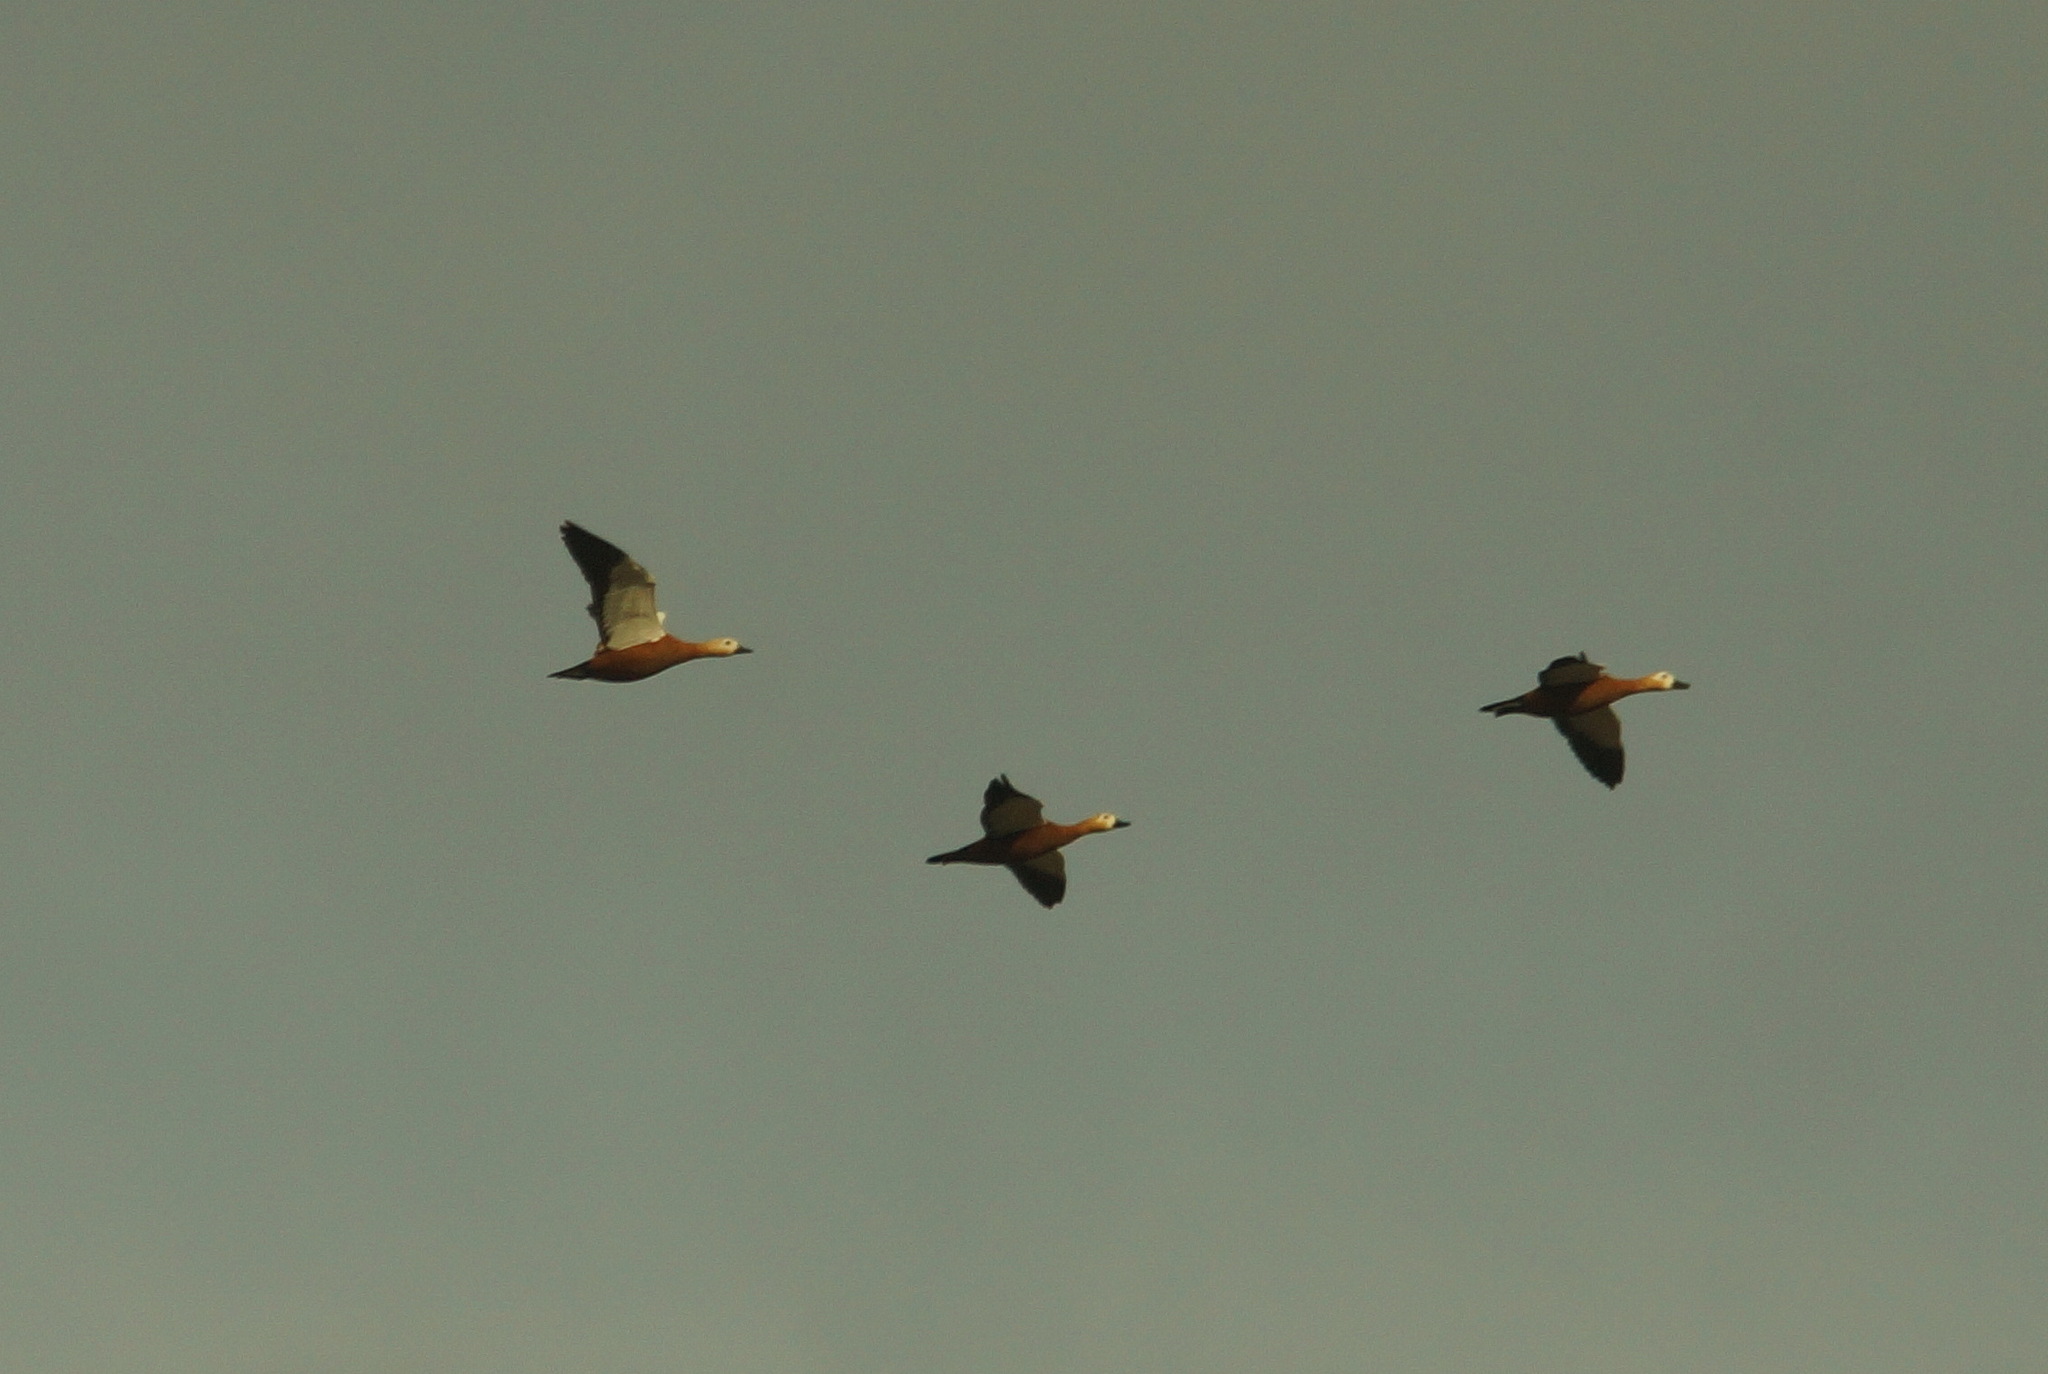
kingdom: Animalia
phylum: Chordata
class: Aves
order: Anseriformes
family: Anatidae
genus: Tadorna
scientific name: Tadorna ferruginea
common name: Ruddy shelduck
